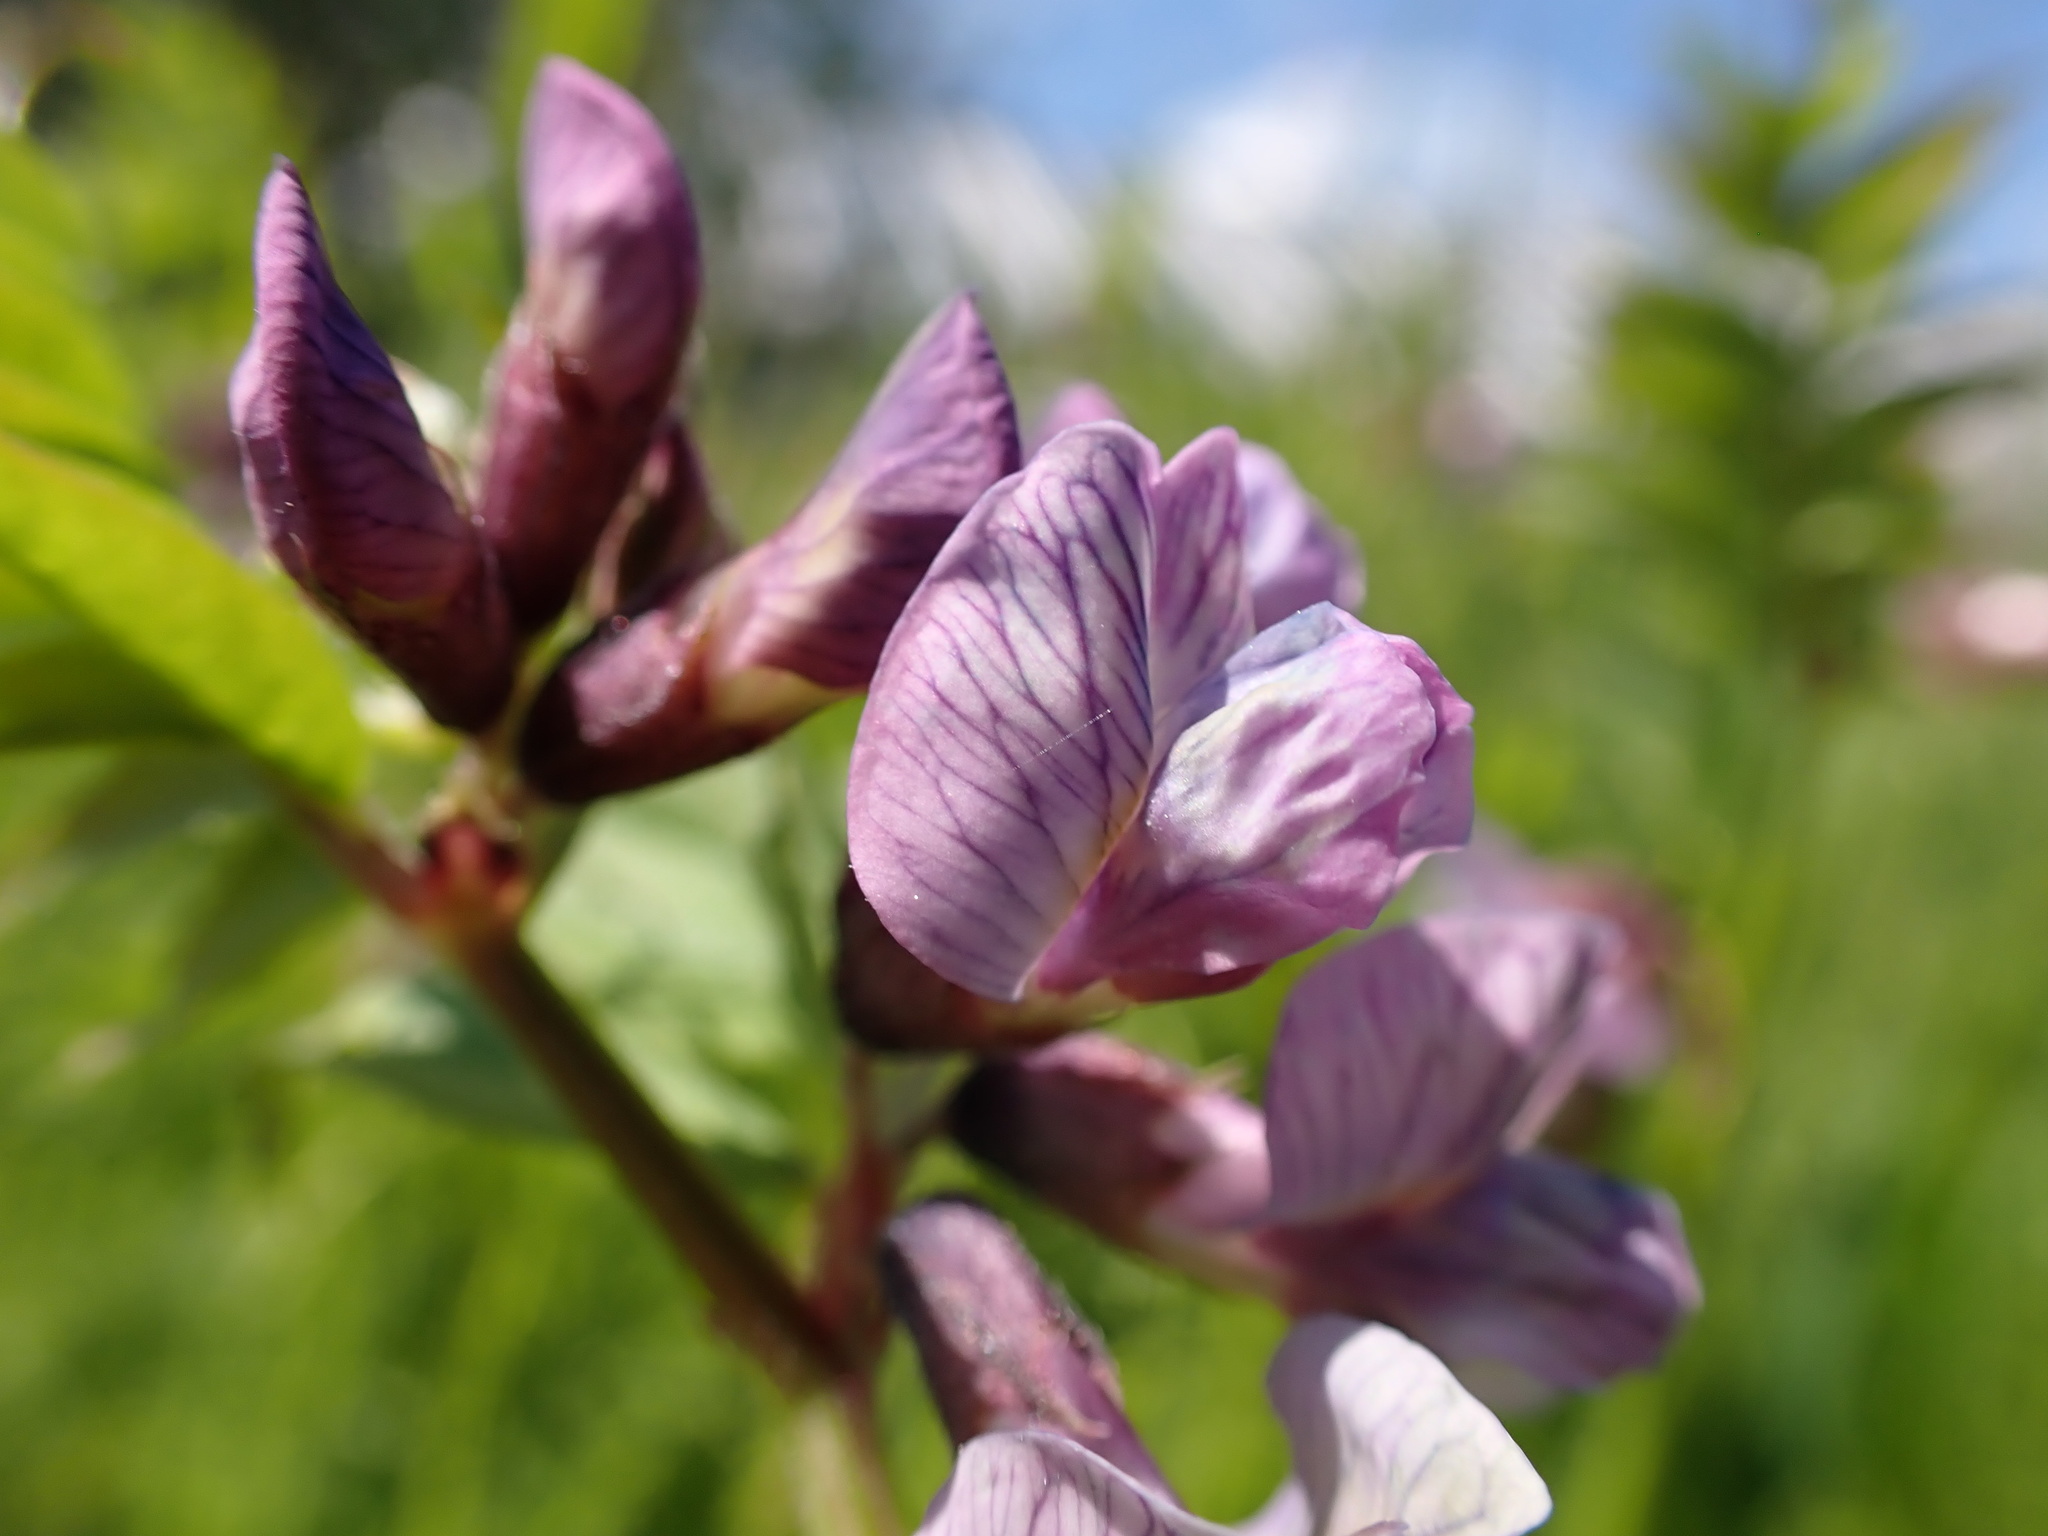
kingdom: Plantae
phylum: Tracheophyta
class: Magnoliopsida
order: Fabales
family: Fabaceae
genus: Vicia
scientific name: Vicia sepium
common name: Bush vetch
